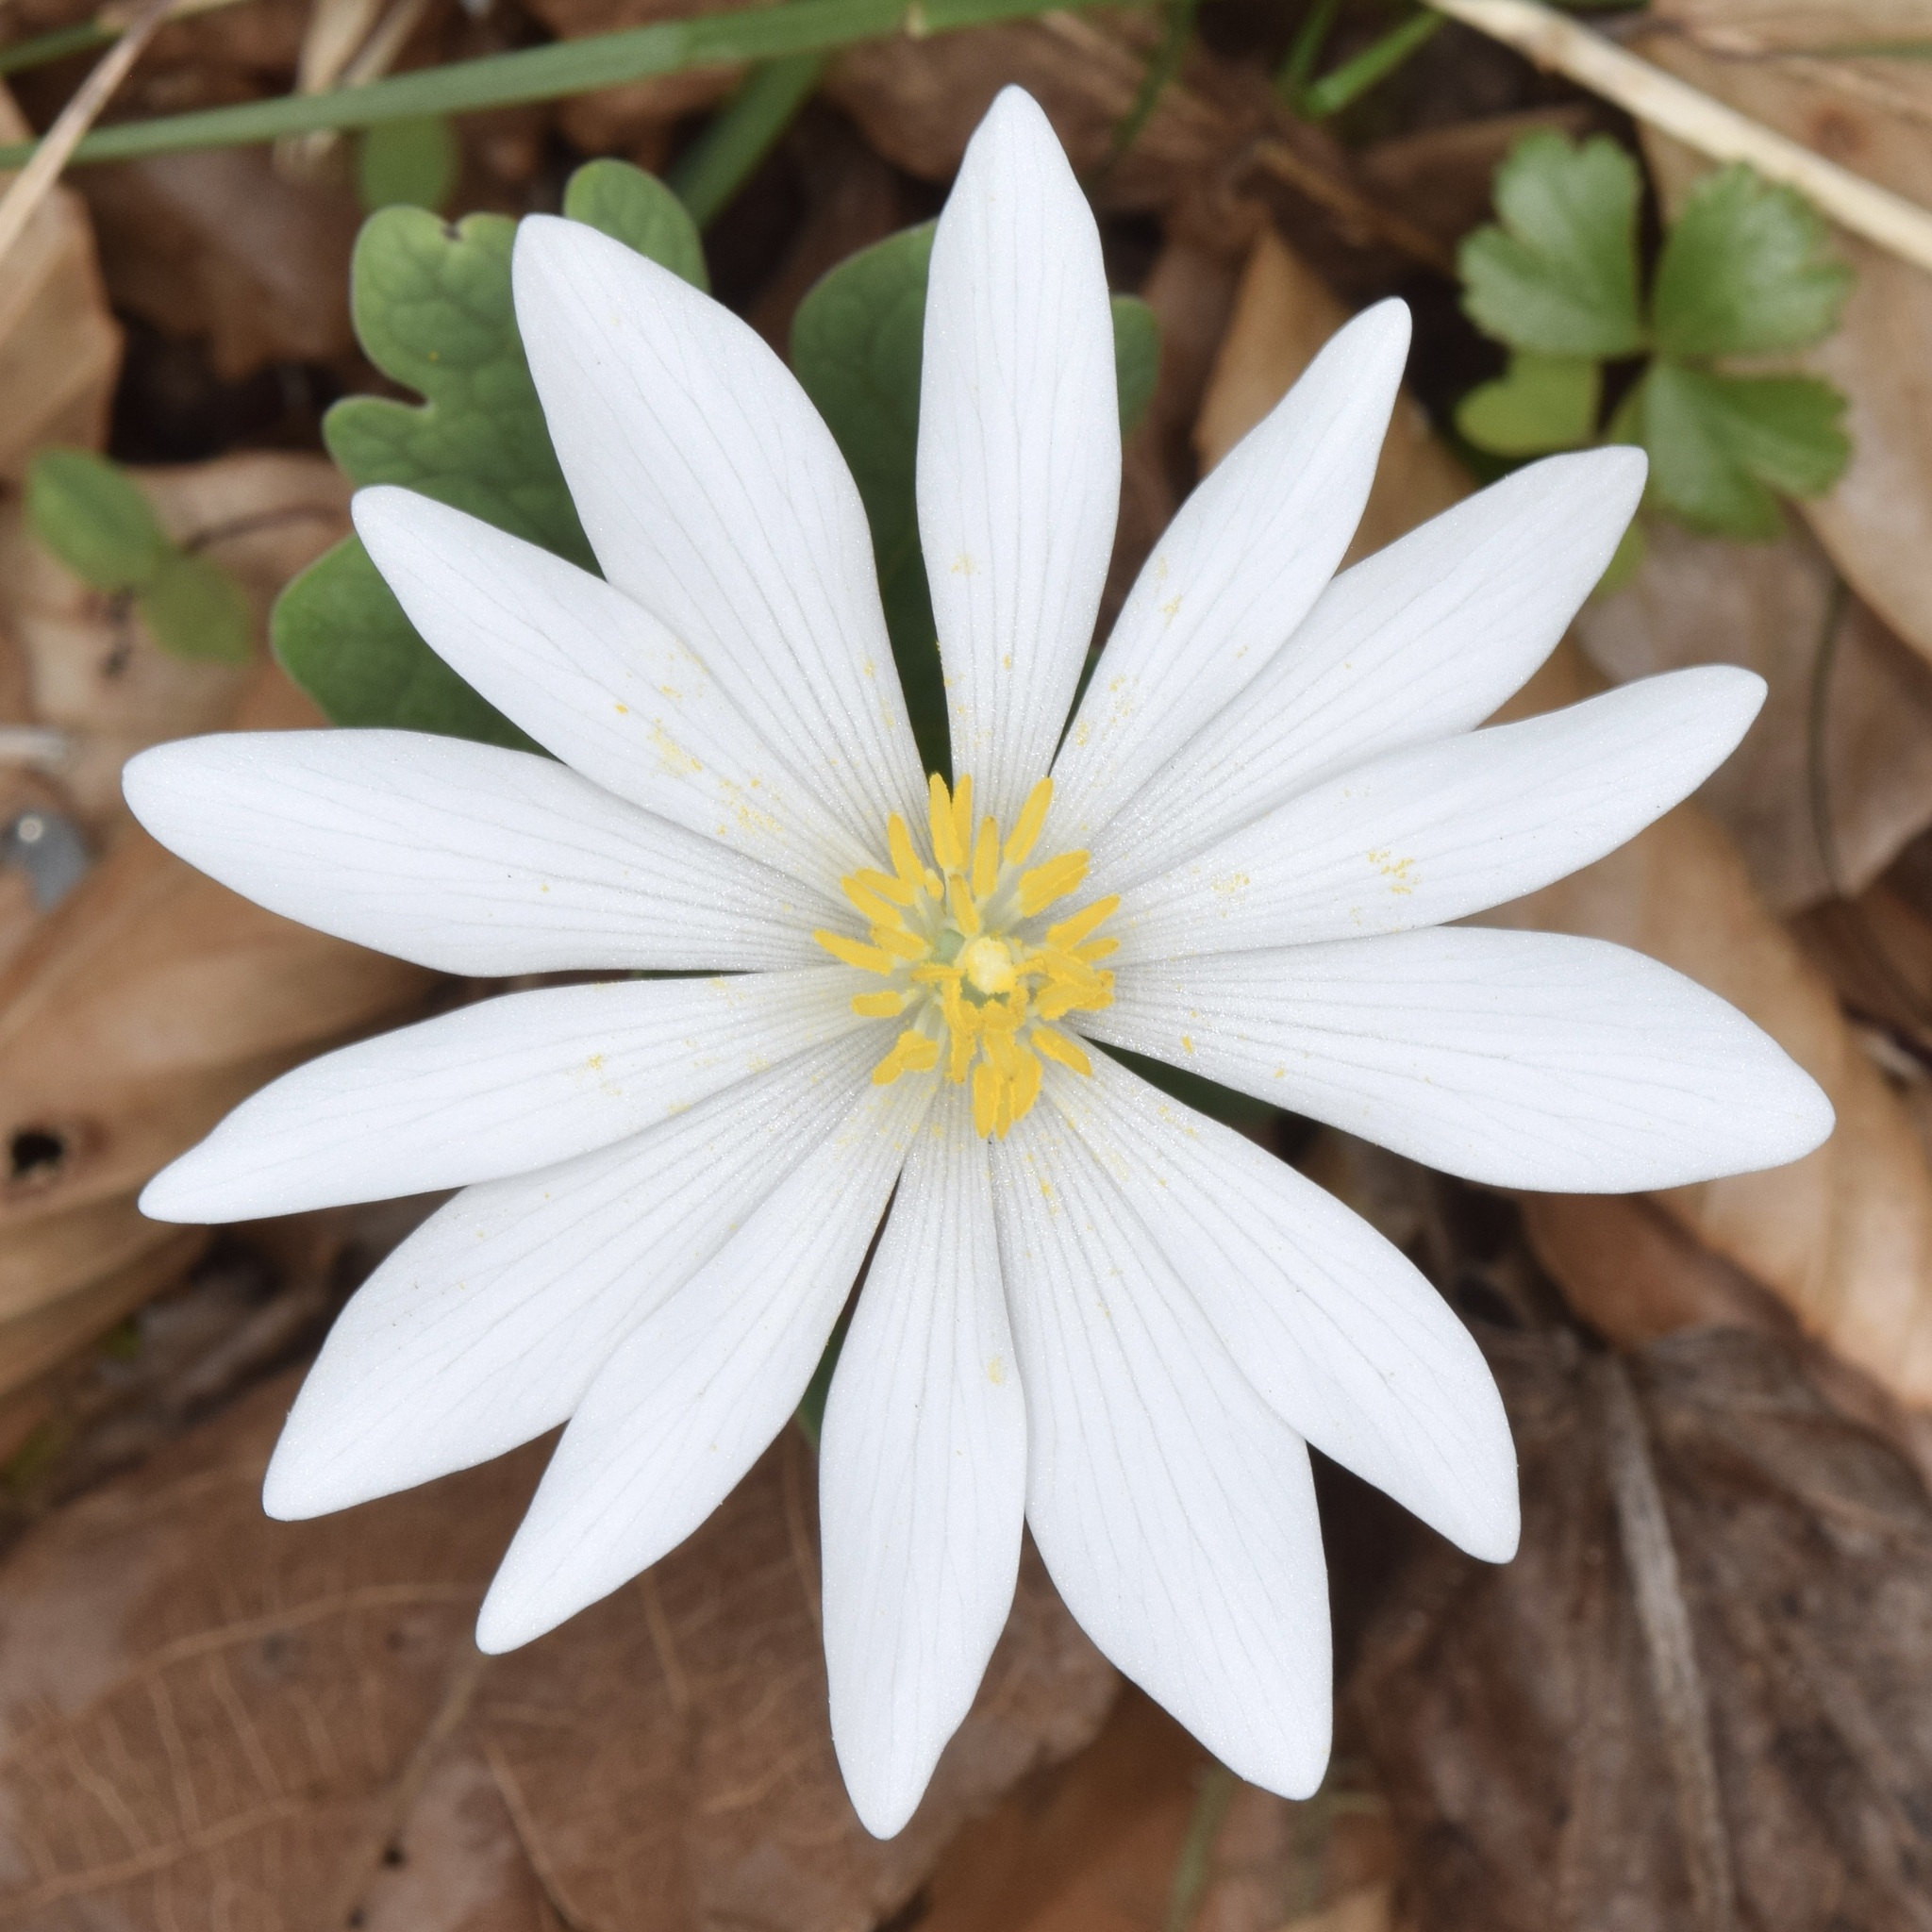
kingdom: Plantae
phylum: Tracheophyta
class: Magnoliopsida
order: Ranunculales
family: Papaveraceae
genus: Sanguinaria
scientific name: Sanguinaria canadensis
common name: Bloodroot
